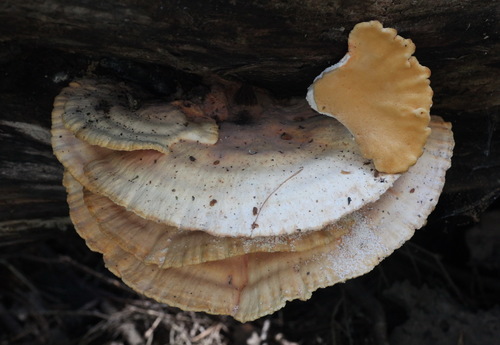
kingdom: Fungi
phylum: Basidiomycota
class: Agaricomycetes
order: Polyporales
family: Laetiporaceae
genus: Laetiporus
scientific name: Laetiporus sulphureus
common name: Chicken of the woods
